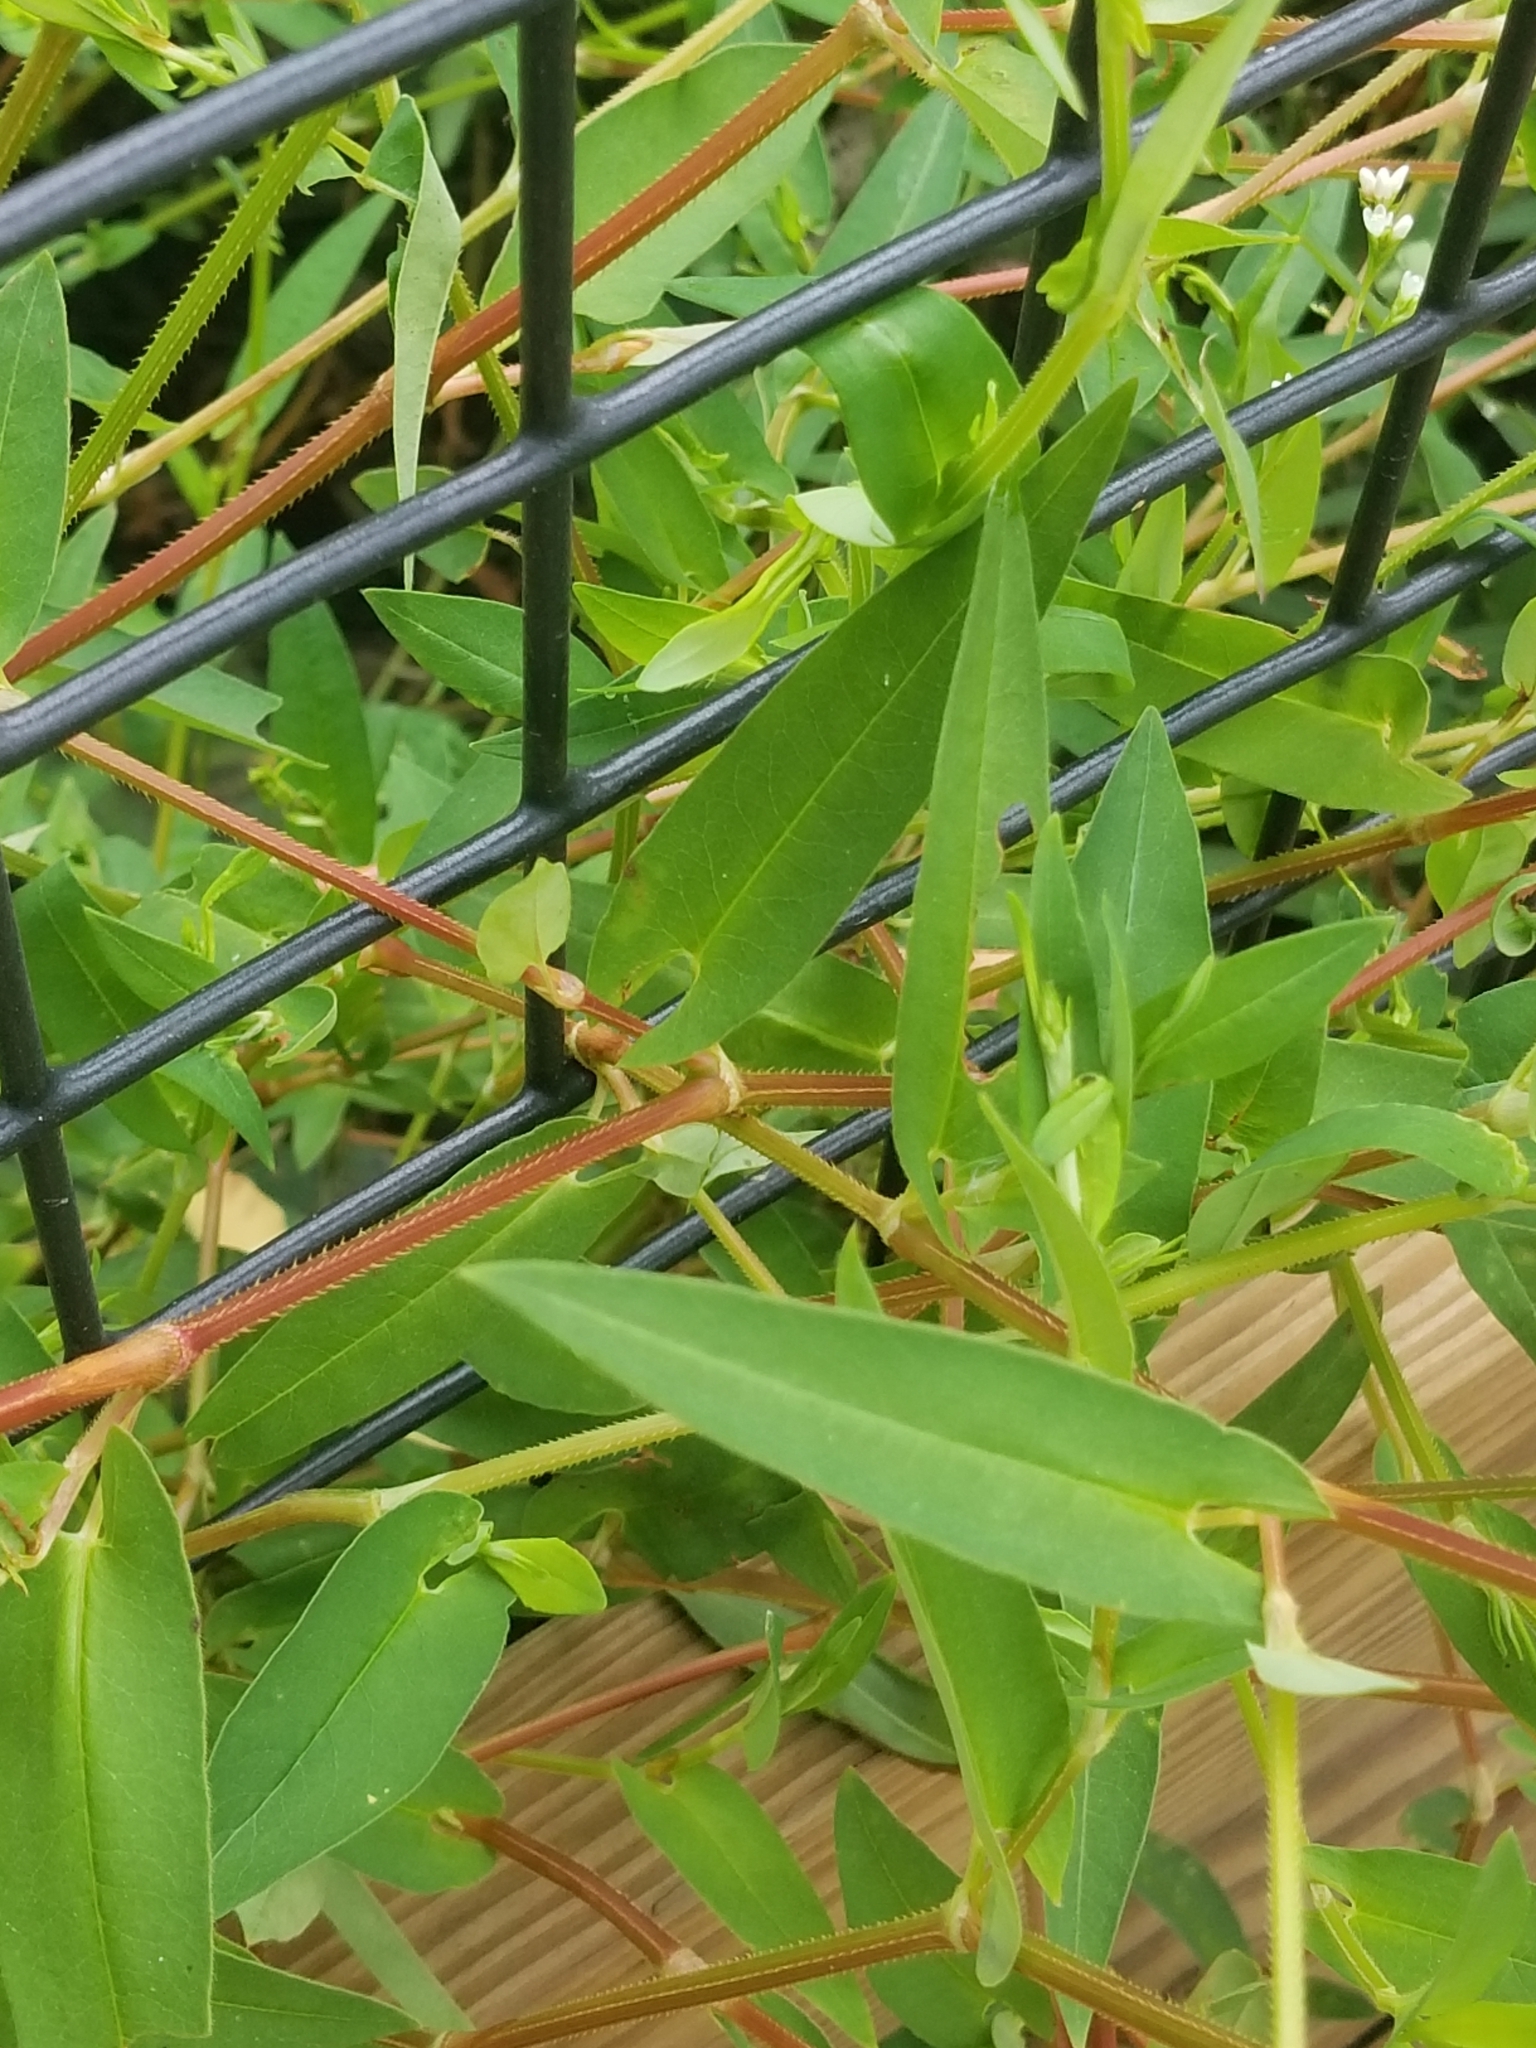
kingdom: Plantae
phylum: Tracheophyta
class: Magnoliopsida
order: Caryophyllales
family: Polygonaceae
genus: Persicaria
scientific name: Persicaria sagittata
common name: American tearthumb
